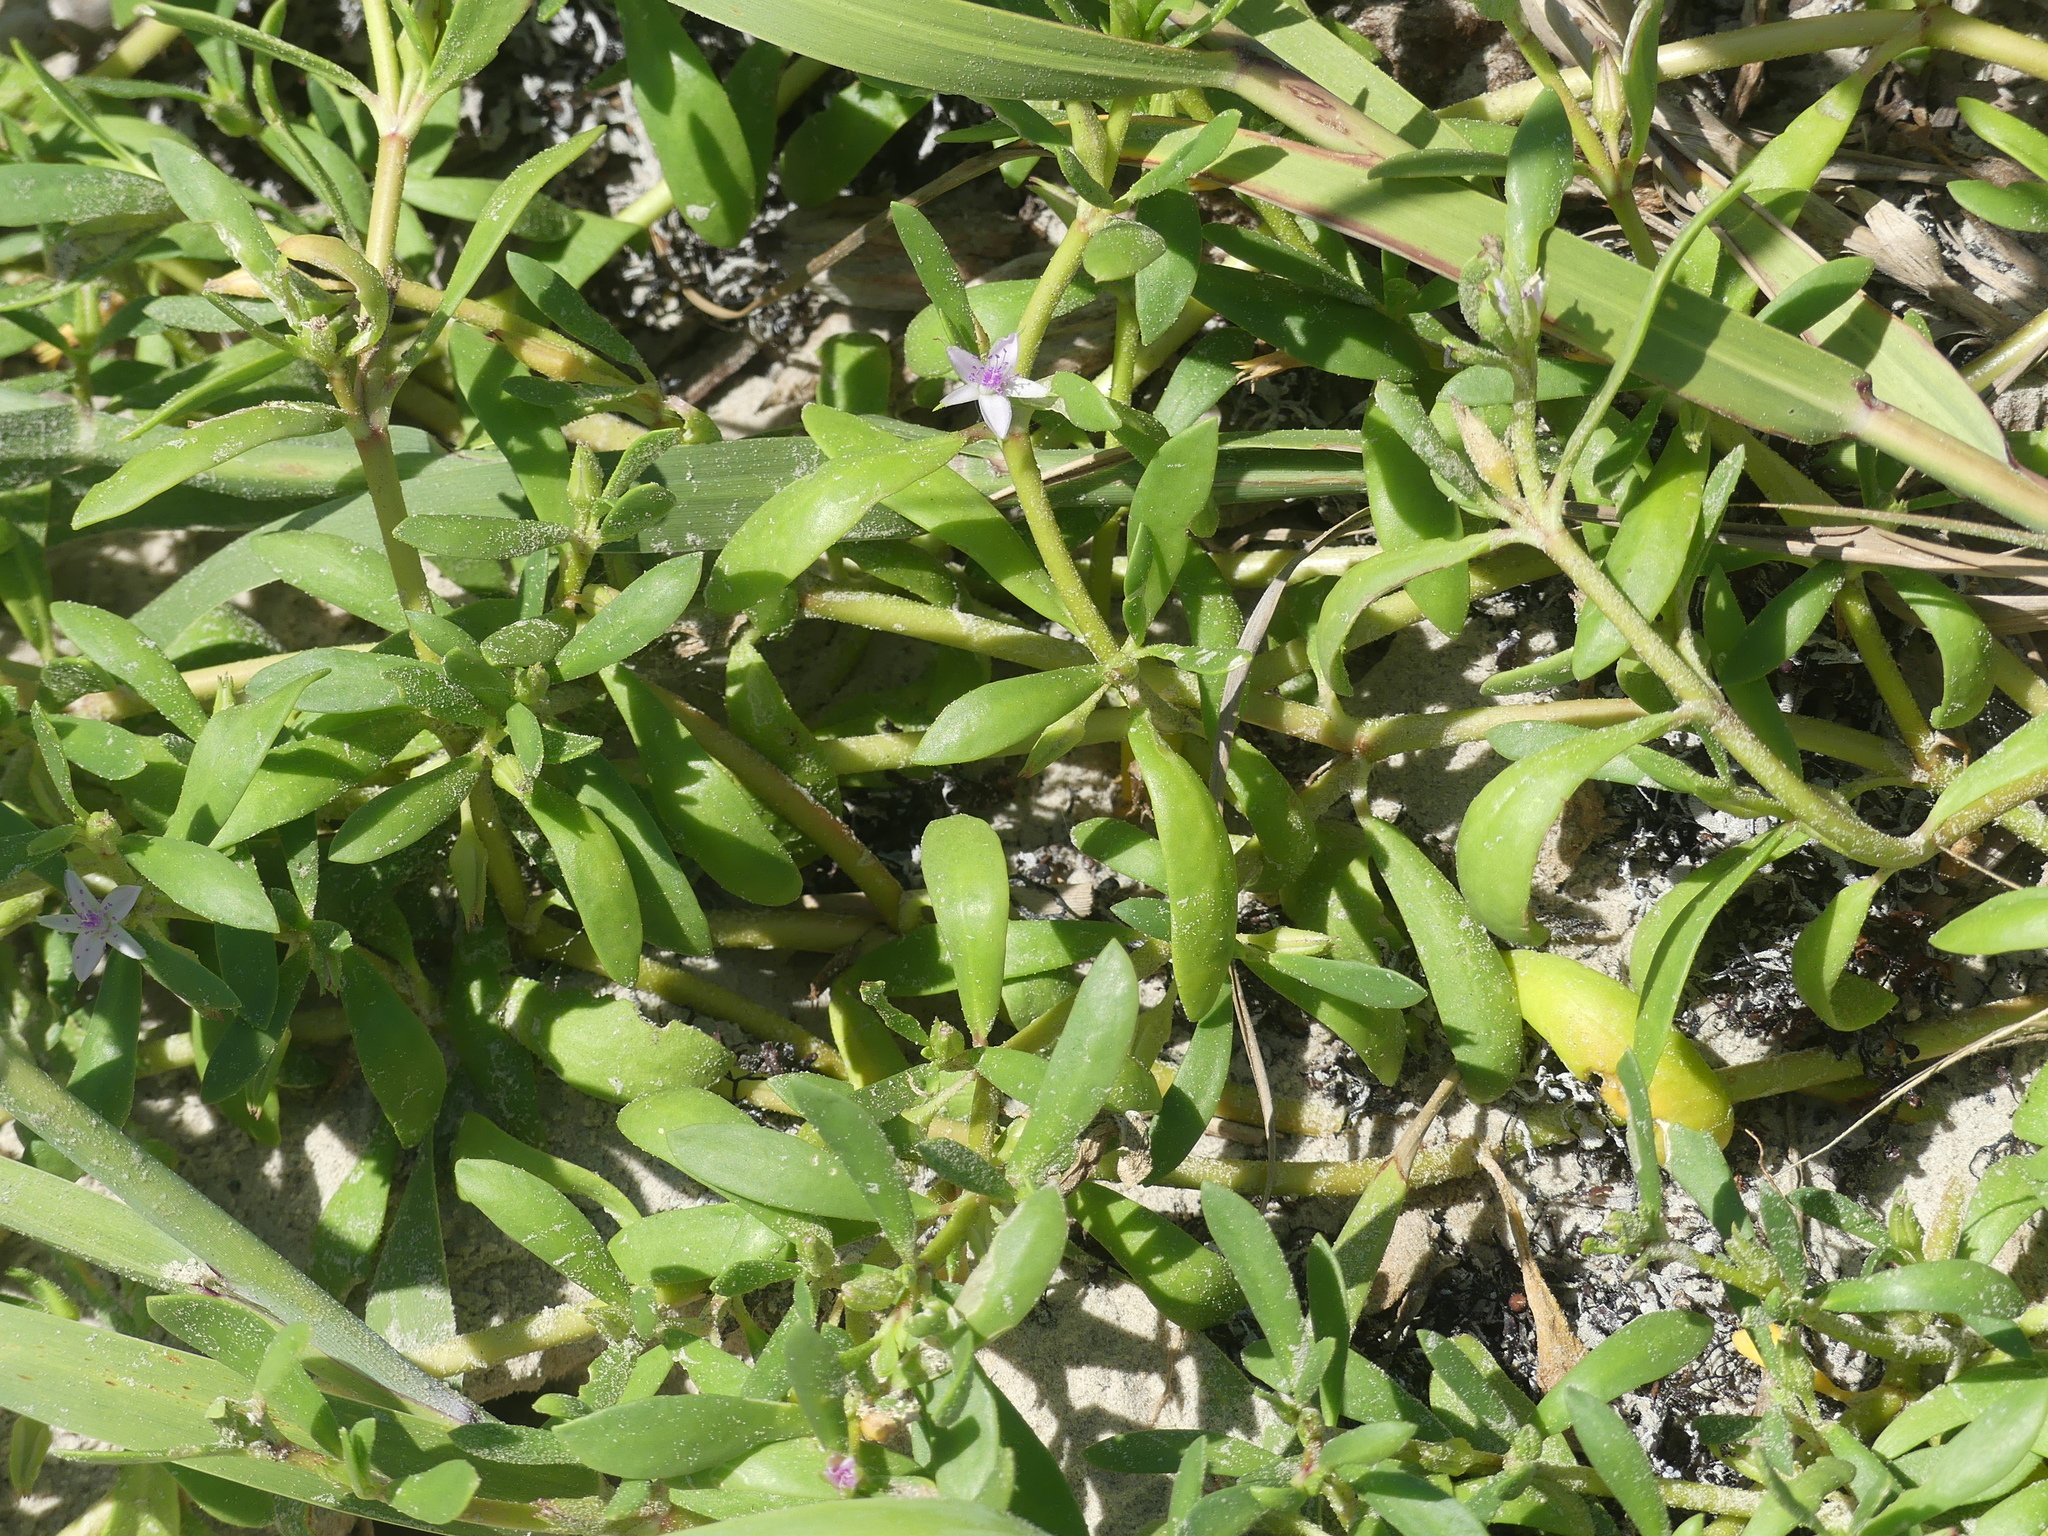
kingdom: Plantae
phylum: Tracheophyta
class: Magnoliopsida
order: Caryophyllales
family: Aizoaceae
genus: Sesuvium
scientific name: Sesuvium portulacastrum
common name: Sea-purslane
